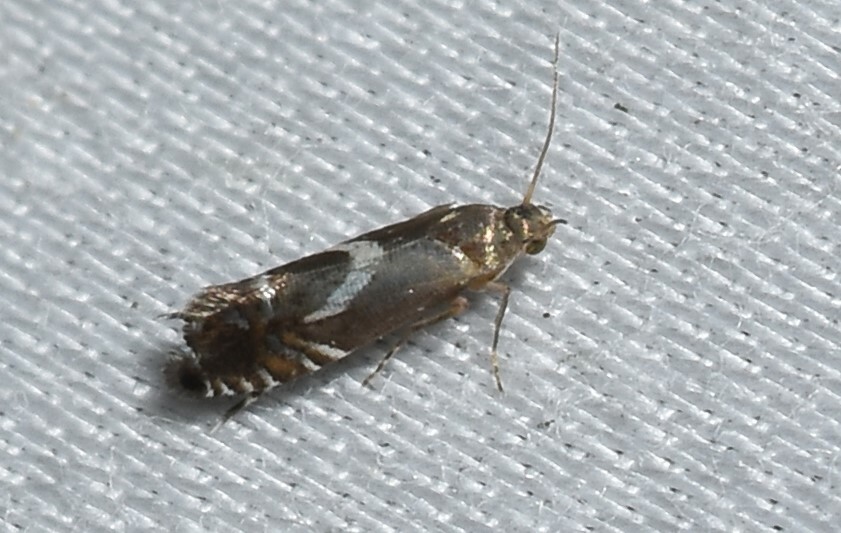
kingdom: Animalia
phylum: Arthropoda
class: Insecta
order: Lepidoptera
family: Glyphipterigidae
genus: Glyphipterix
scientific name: Glyphipterix Diploschizia impigritella
